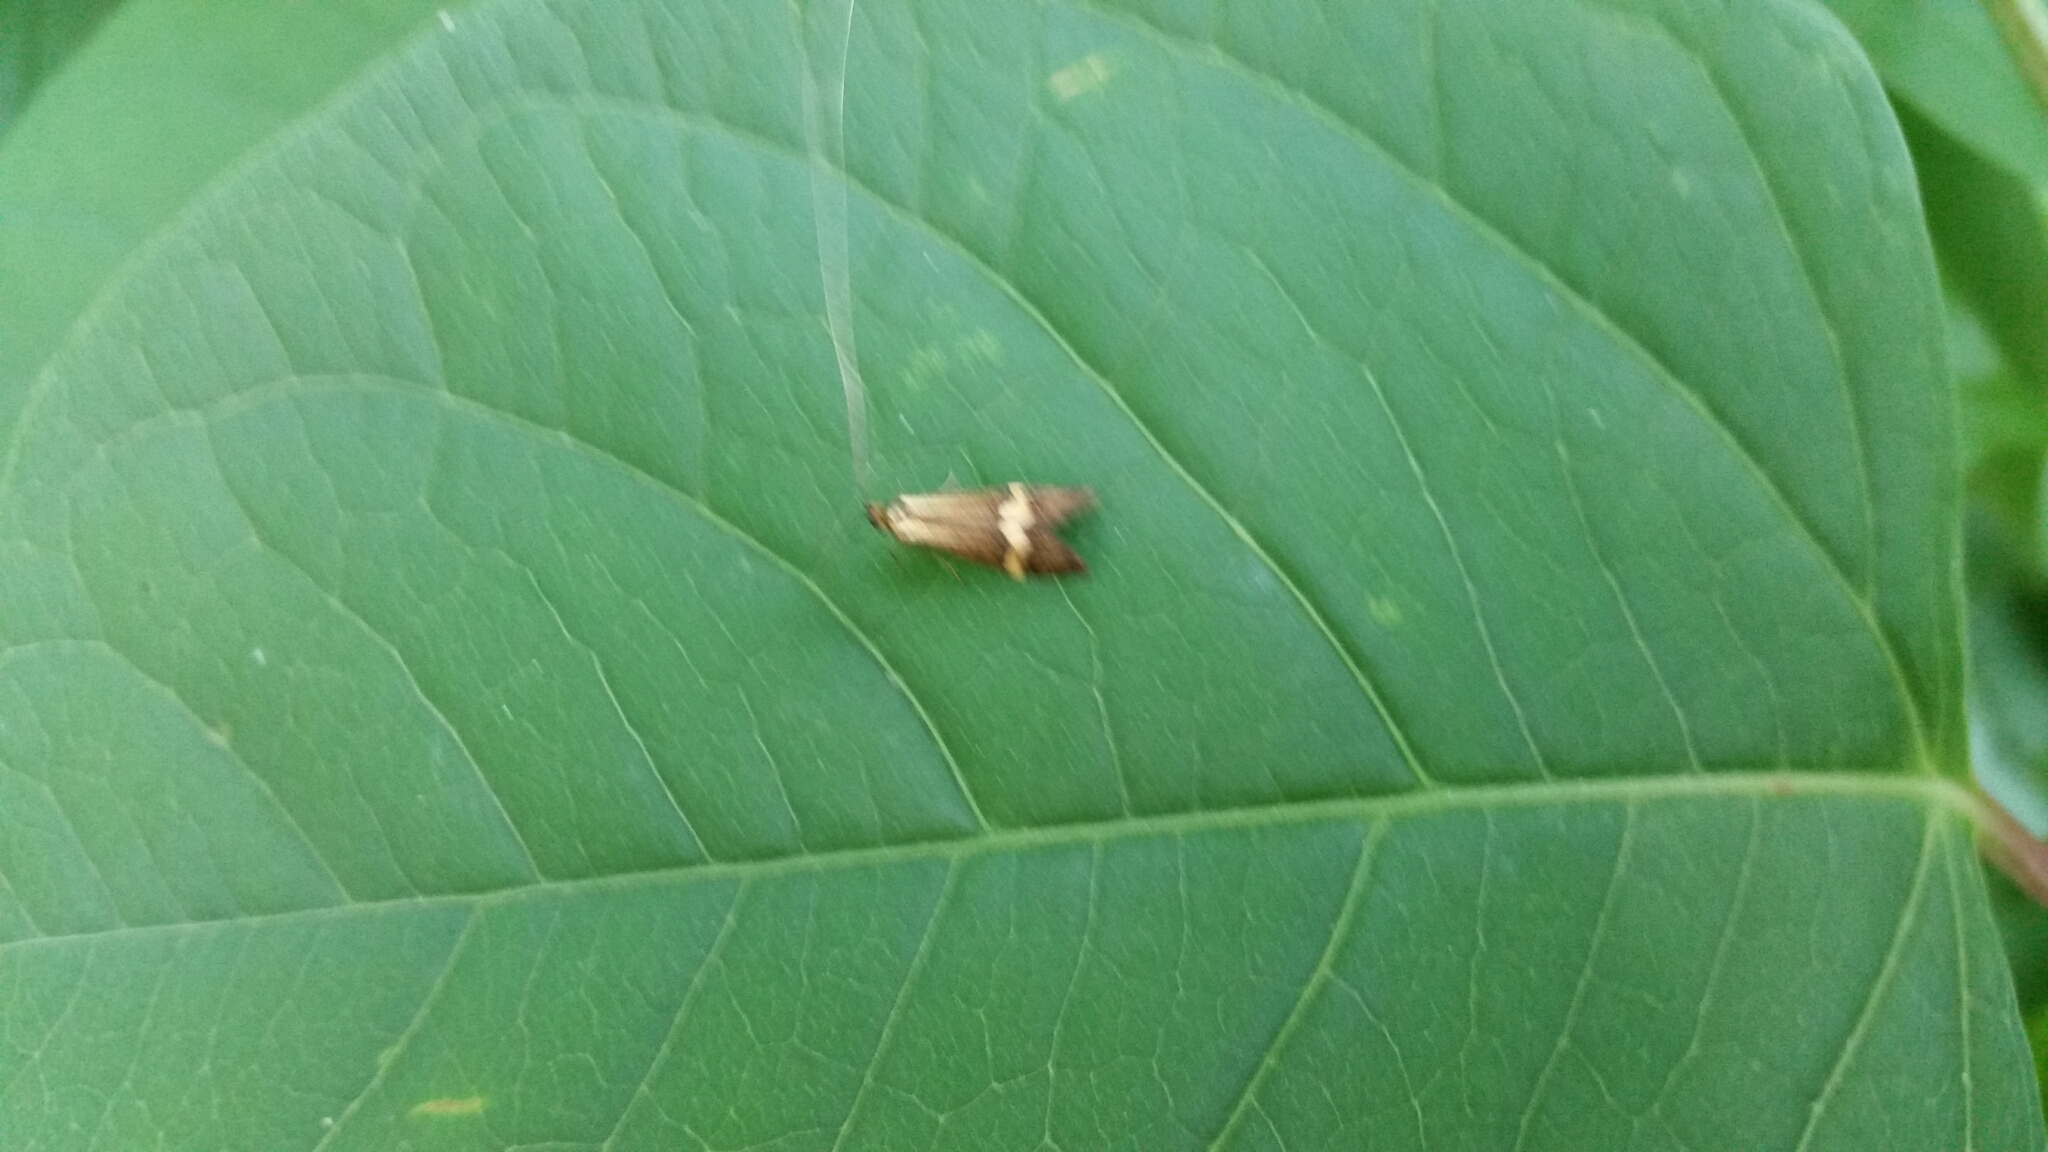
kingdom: Animalia
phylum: Arthropoda
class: Insecta
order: Lepidoptera
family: Adelidae
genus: Nemophora
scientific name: Nemophora degeerella
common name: Yellow-barred long-horn
